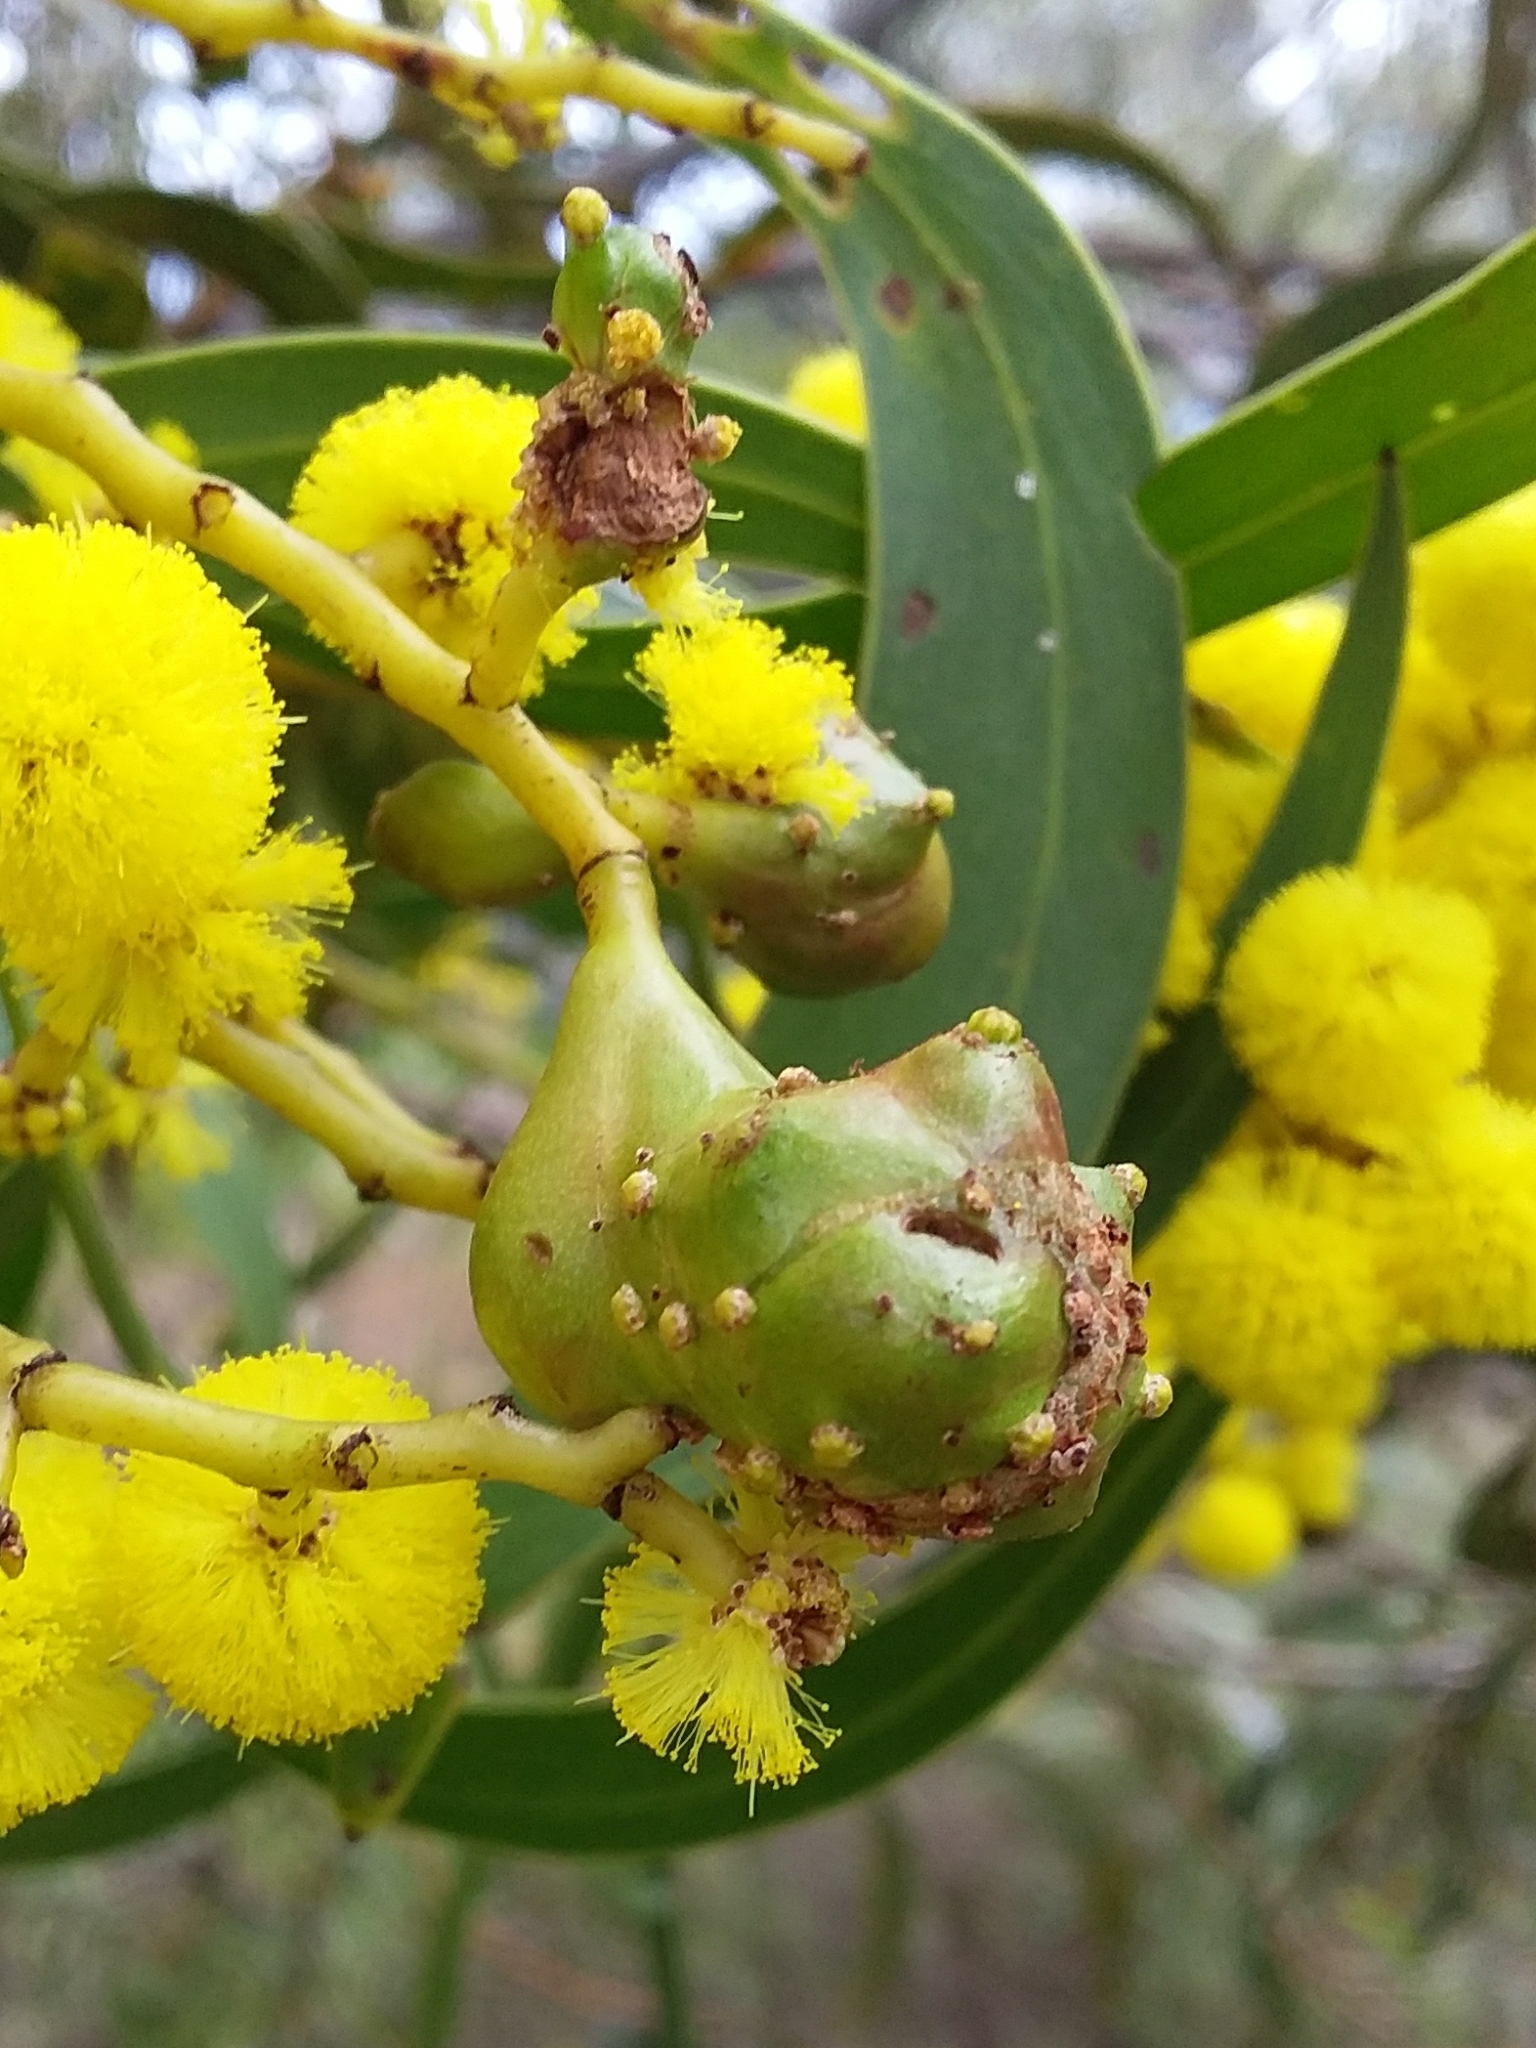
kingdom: Animalia
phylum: Arthropoda
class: Insecta
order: Hymenoptera
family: Pteromalidae
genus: Trichilogaster
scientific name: Trichilogaster signiventris
